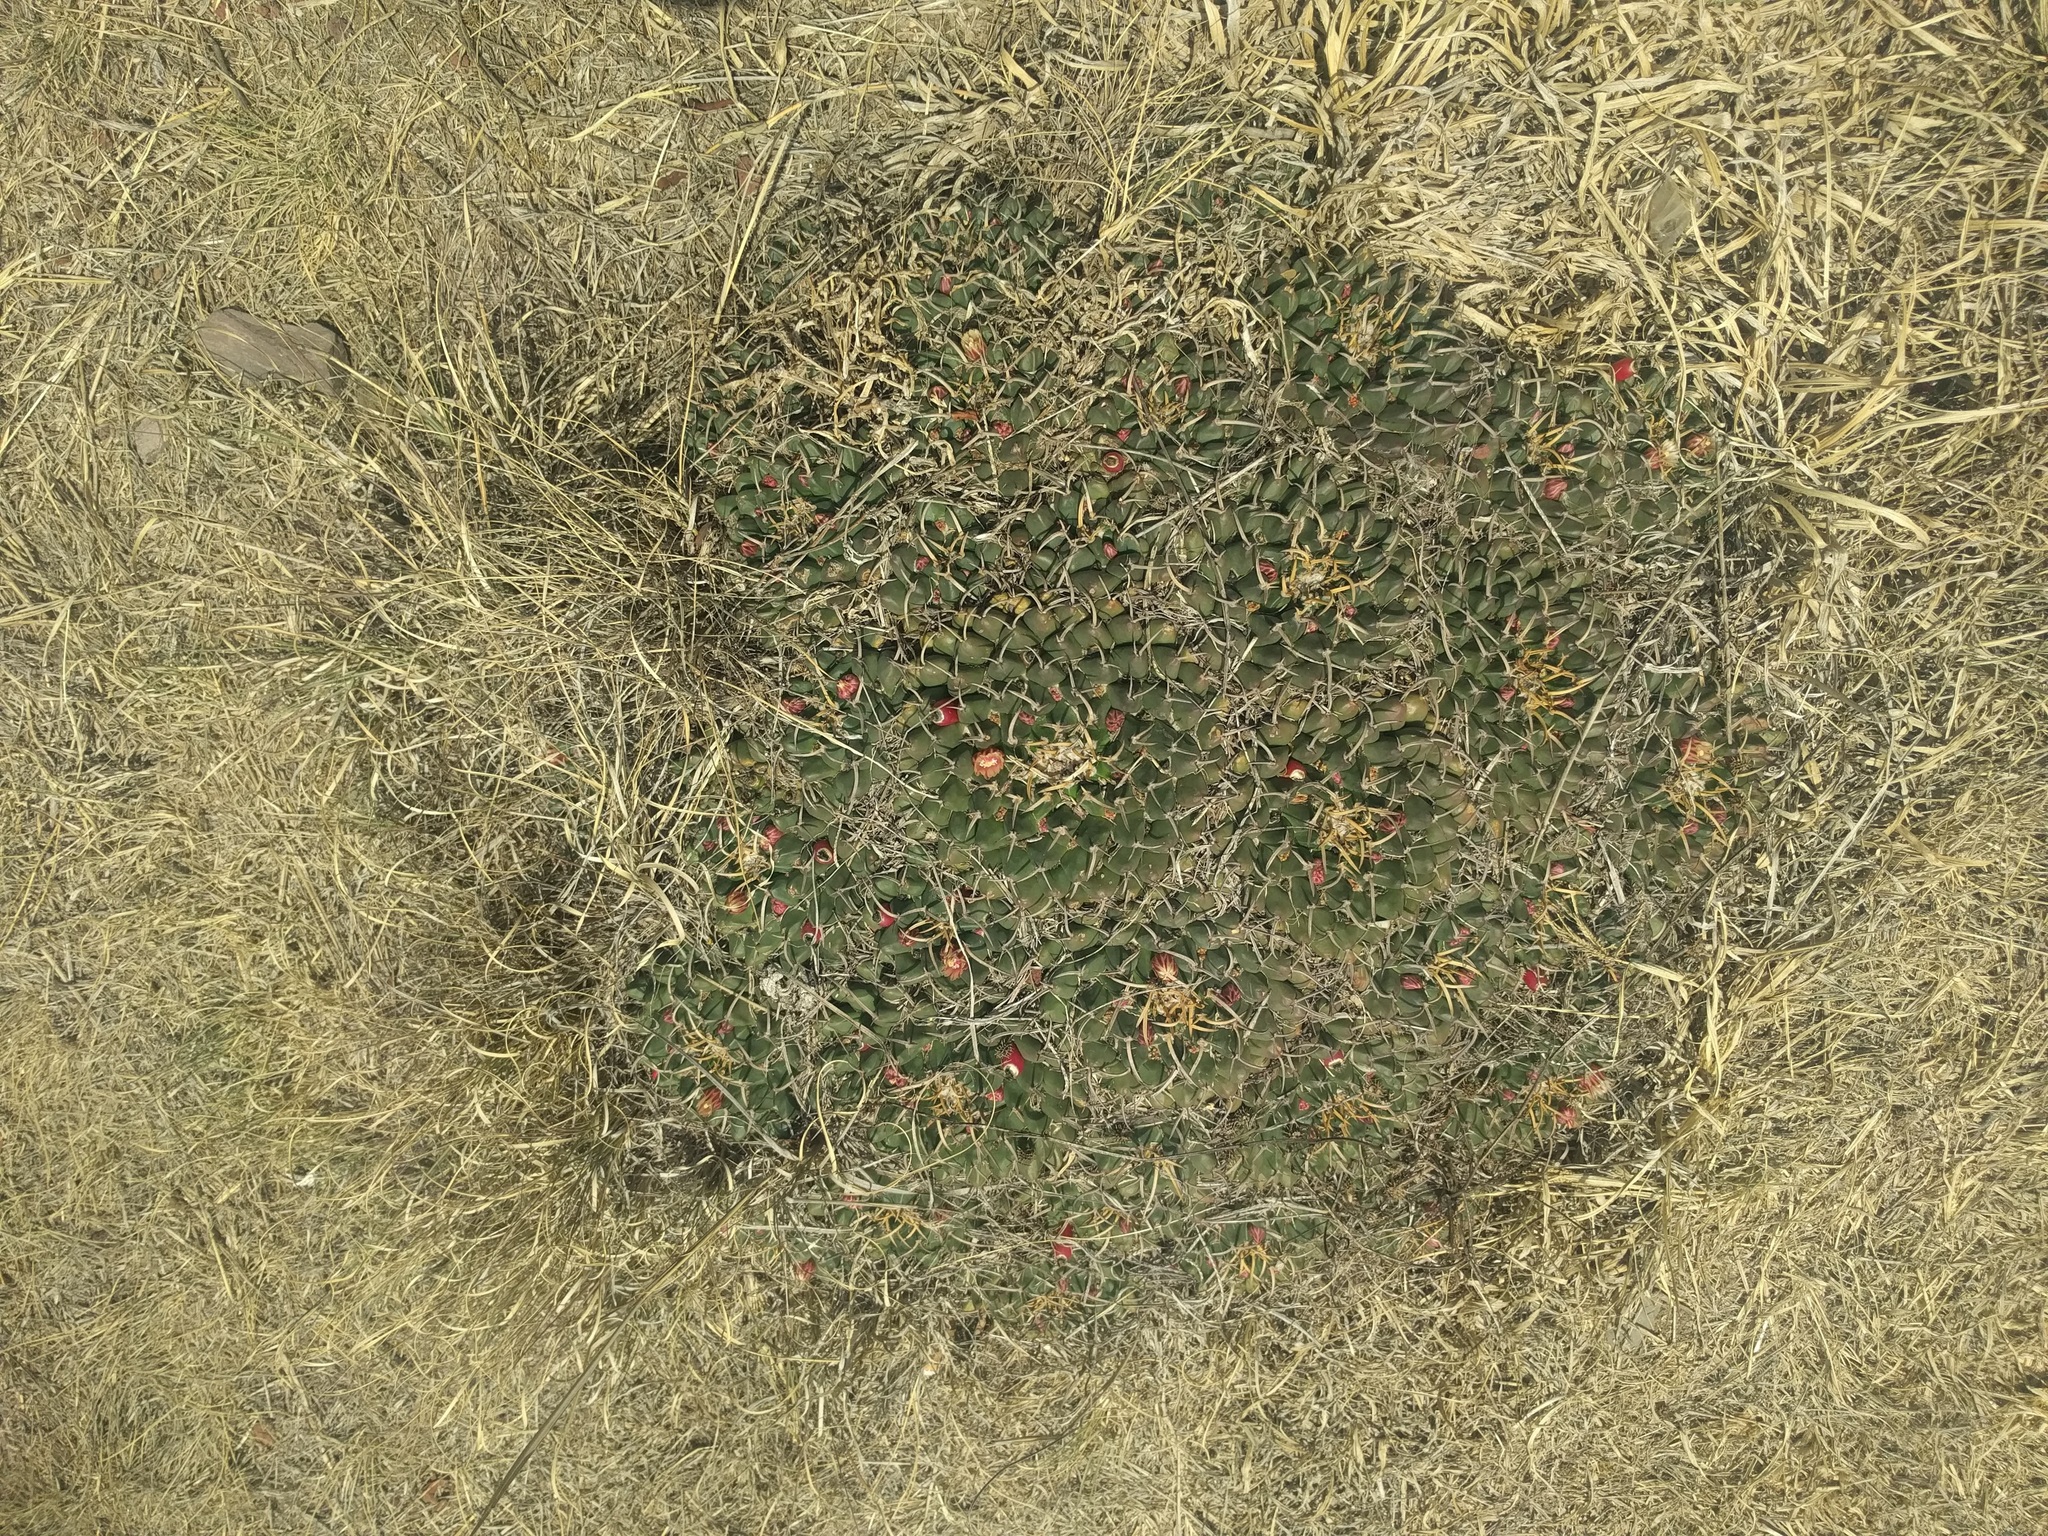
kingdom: Plantae
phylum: Tracheophyta
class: Magnoliopsida
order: Caryophyllales
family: Cactaceae
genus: Mammillaria
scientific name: Mammillaria magnimamma
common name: Mexican pincushion
